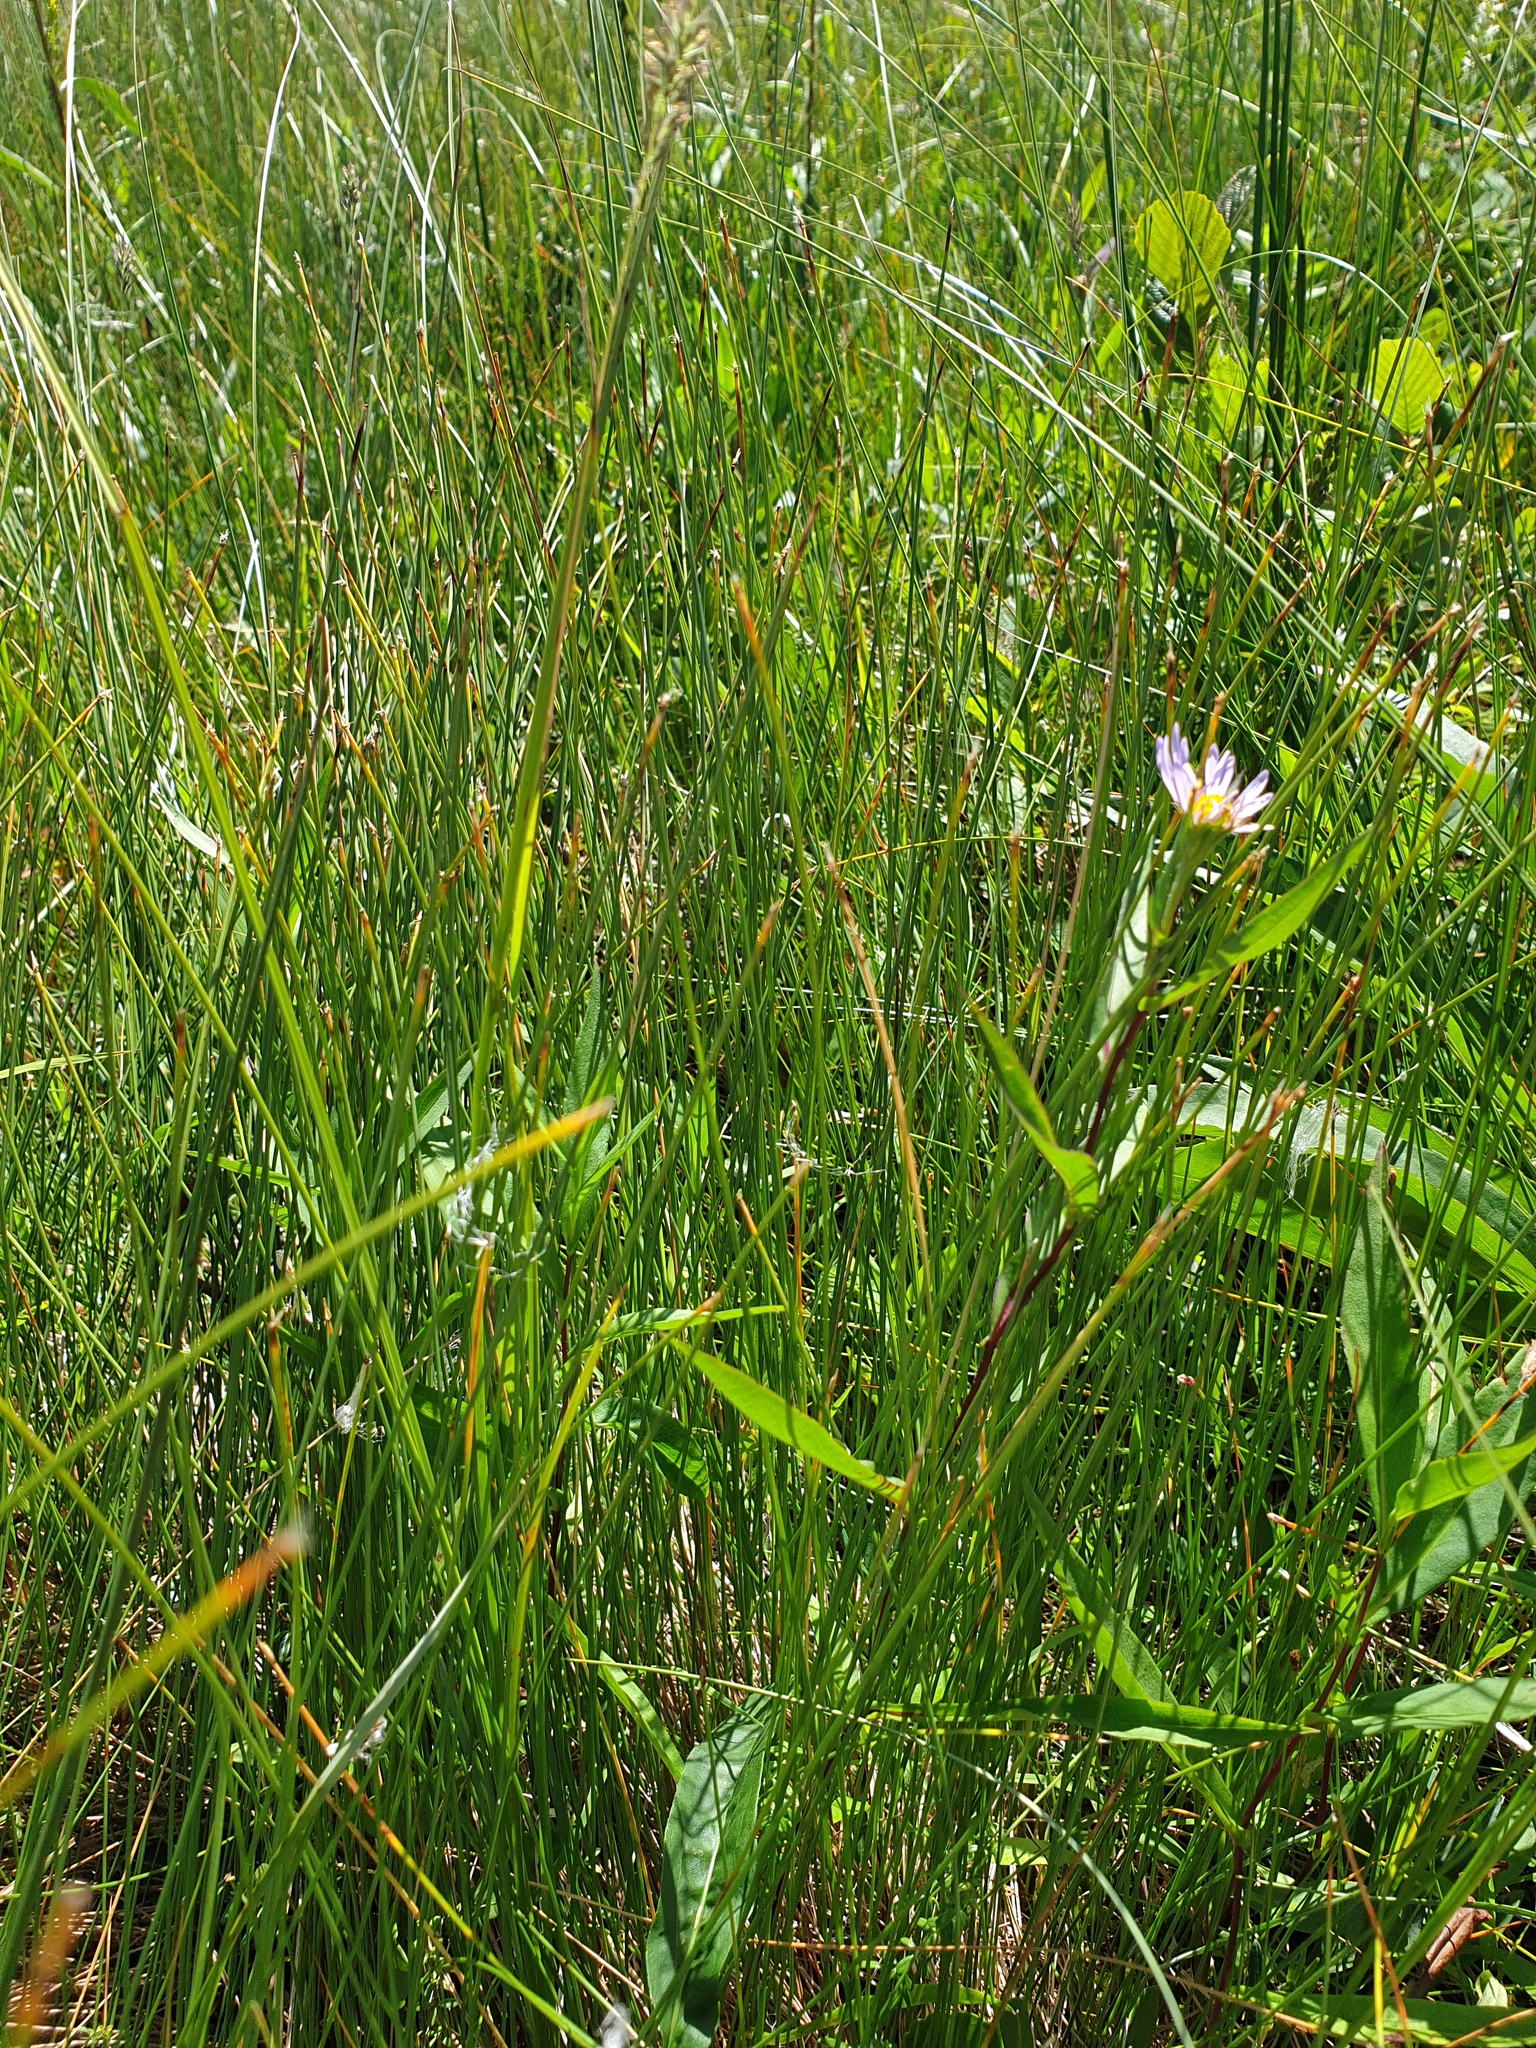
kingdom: Plantae
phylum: Tracheophyta
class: Magnoliopsida
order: Asterales
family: Asteraceae
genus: Symphyotrichum
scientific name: Symphyotrichum novi-belgii
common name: Michaelmas daisy
